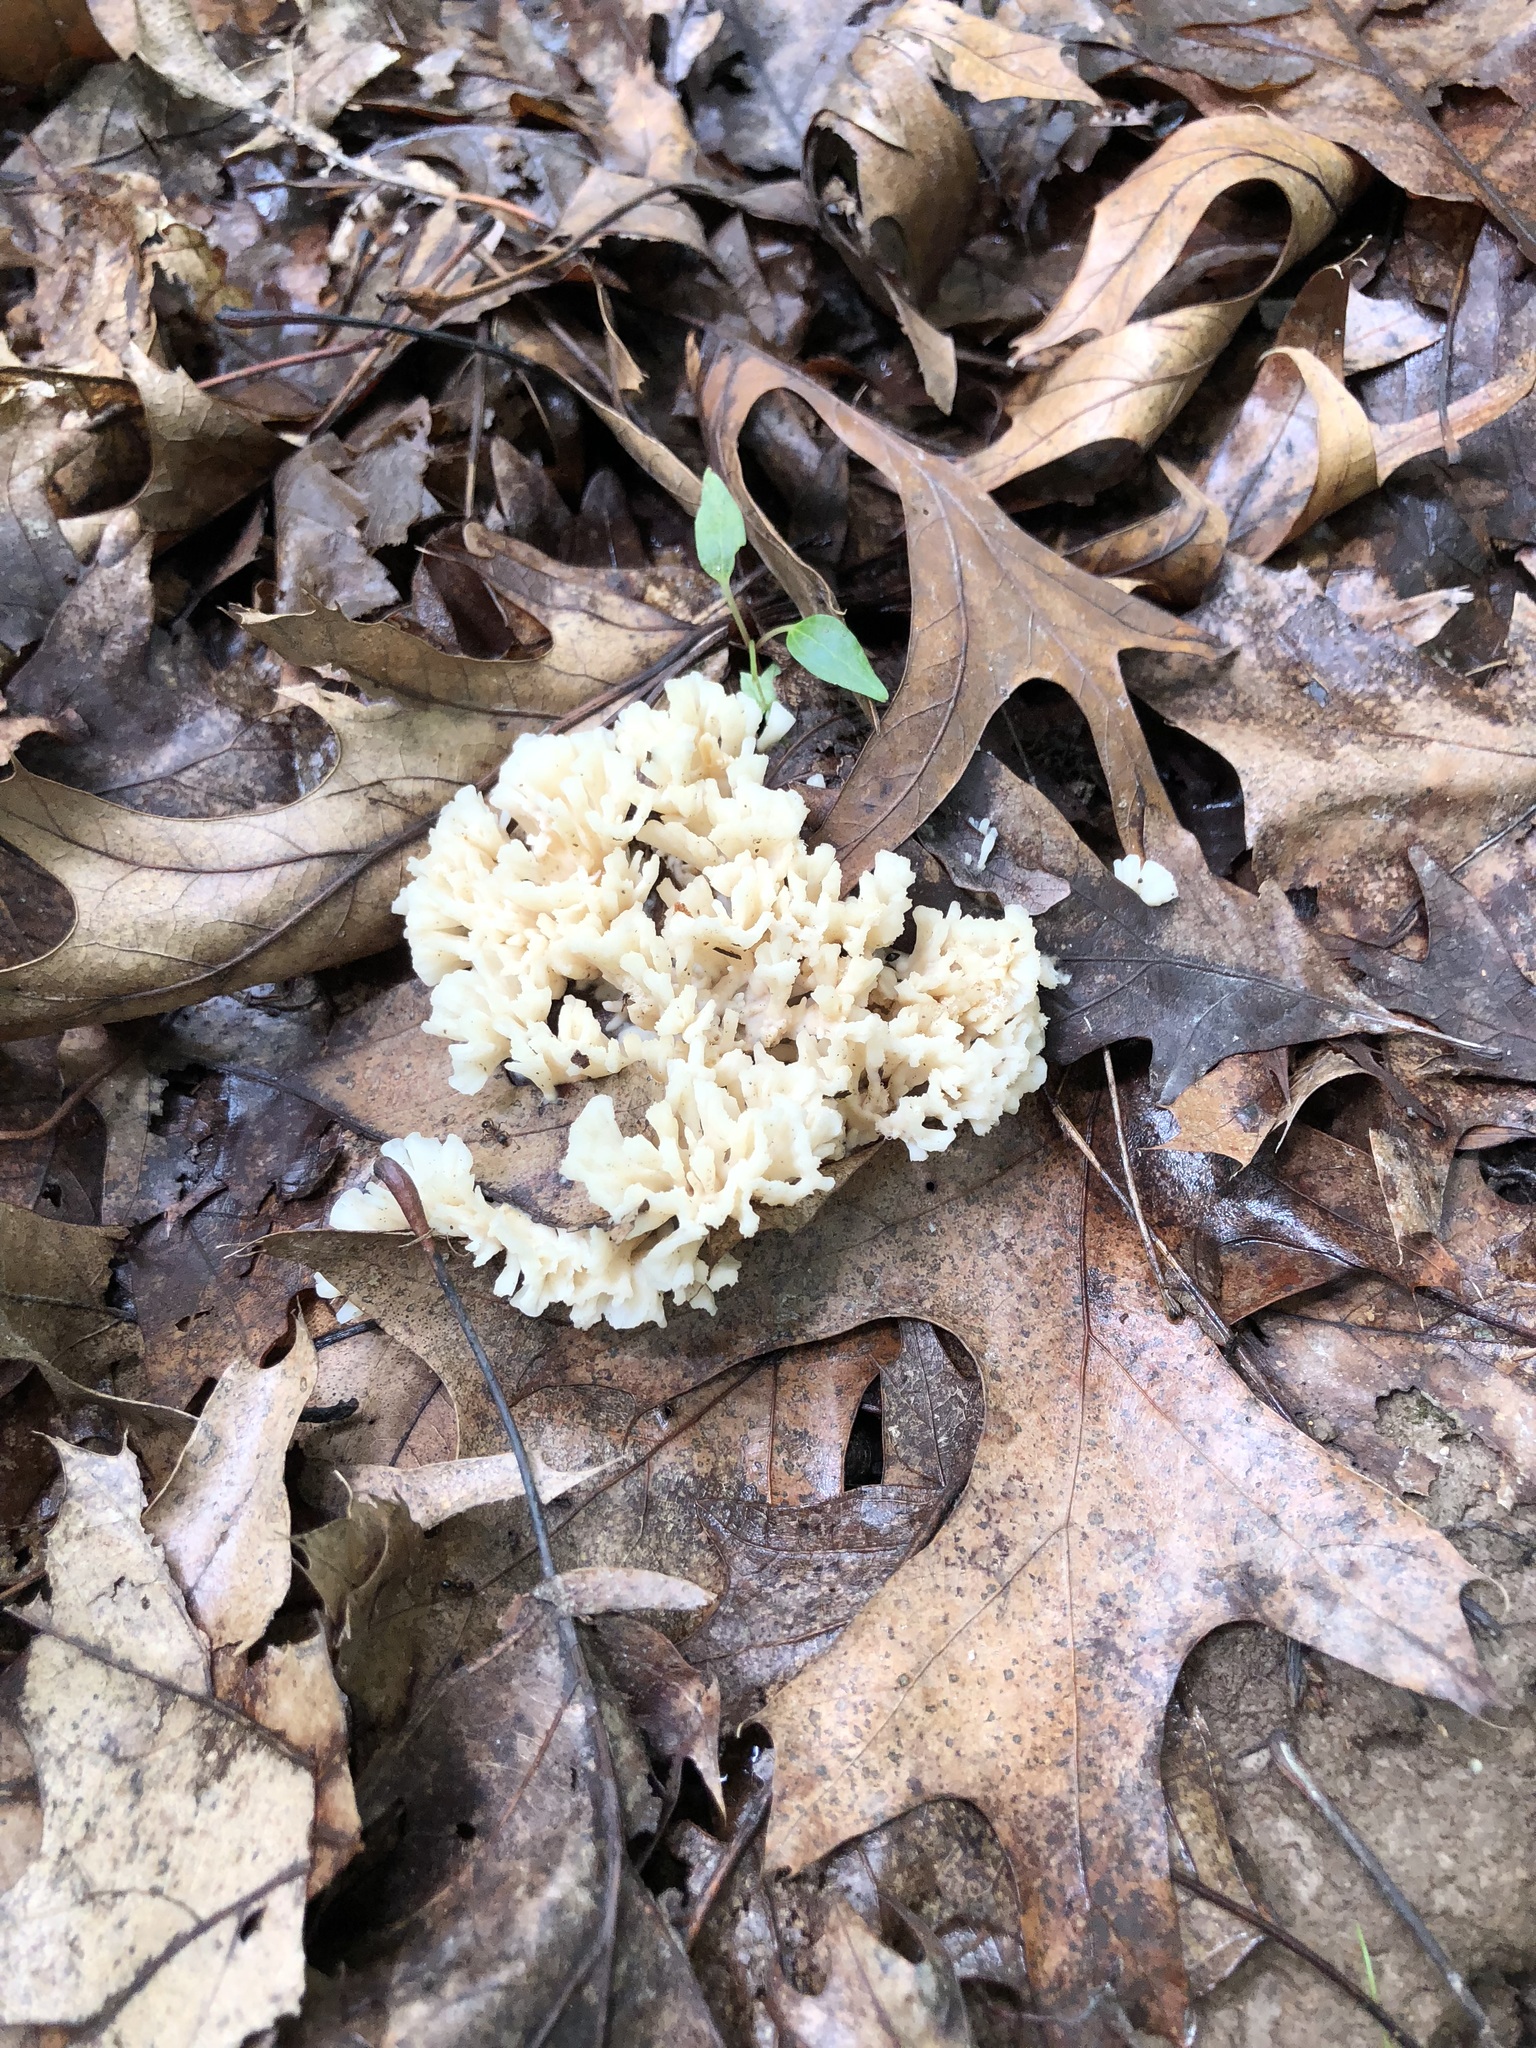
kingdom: Fungi
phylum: Basidiomycota
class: Agaricomycetes
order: Sebacinales
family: Sebacinaceae
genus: Sebacina
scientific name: Sebacina schweinitzii
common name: Jellied false coral fungus
